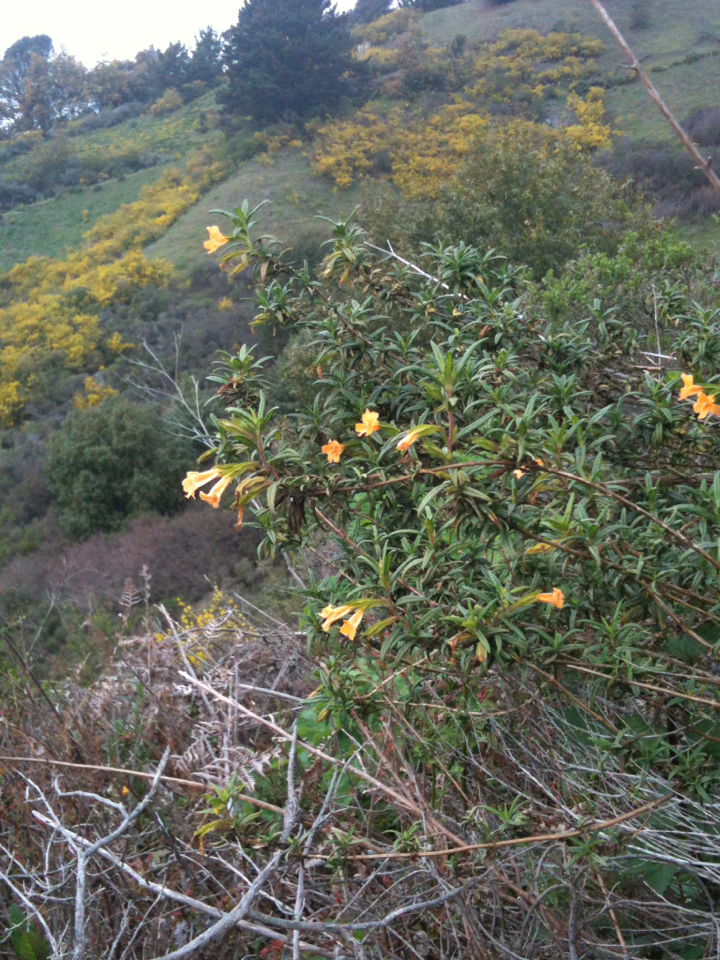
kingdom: Plantae
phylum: Tracheophyta
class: Magnoliopsida
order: Lamiales
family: Phrymaceae
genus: Diplacus
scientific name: Diplacus aurantiacus
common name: Bush monkey-flower
